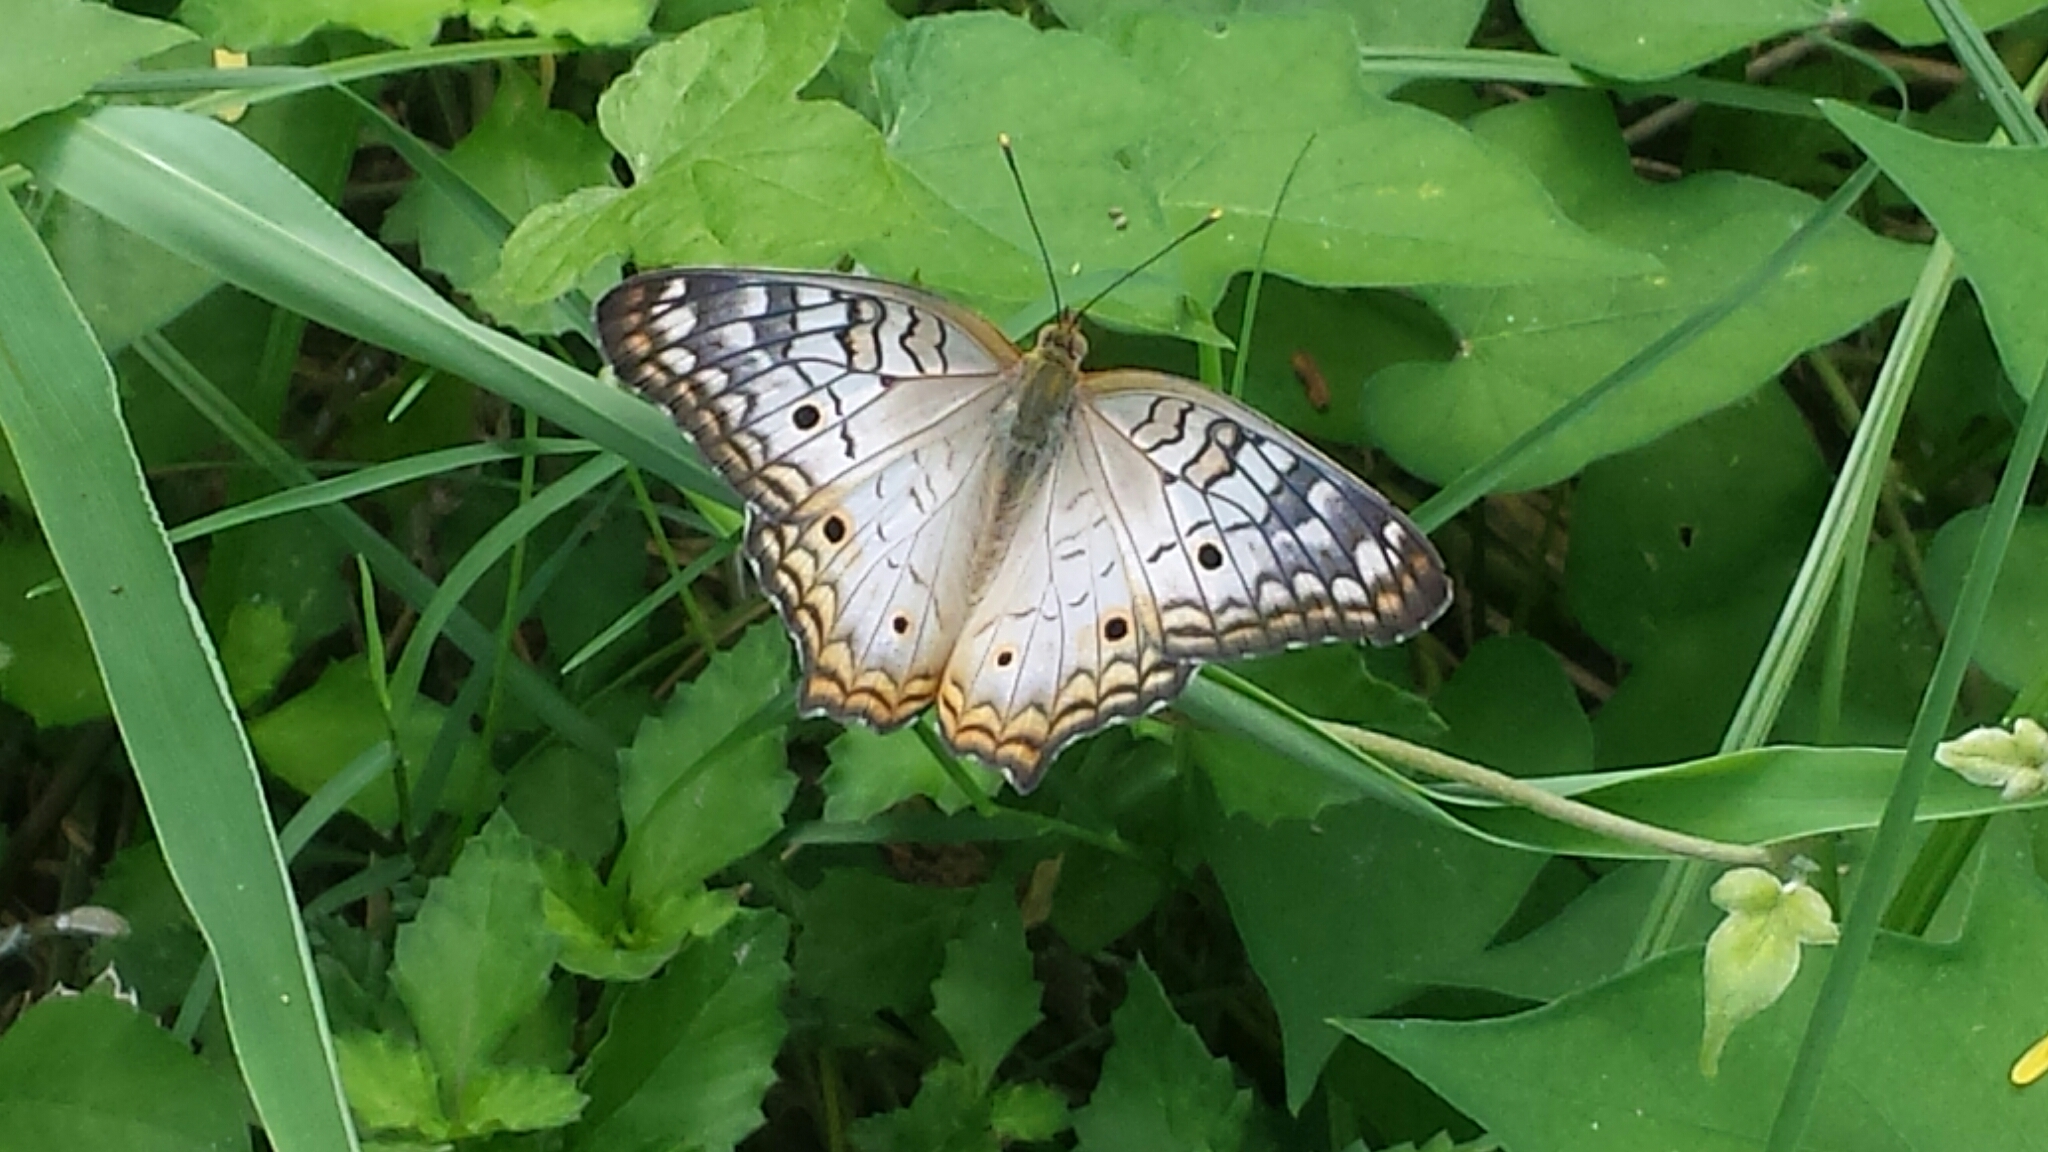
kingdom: Animalia
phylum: Arthropoda
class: Insecta
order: Lepidoptera
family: Nymphalidae
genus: Anartia
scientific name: Anartia jatrophae
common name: White peacock
